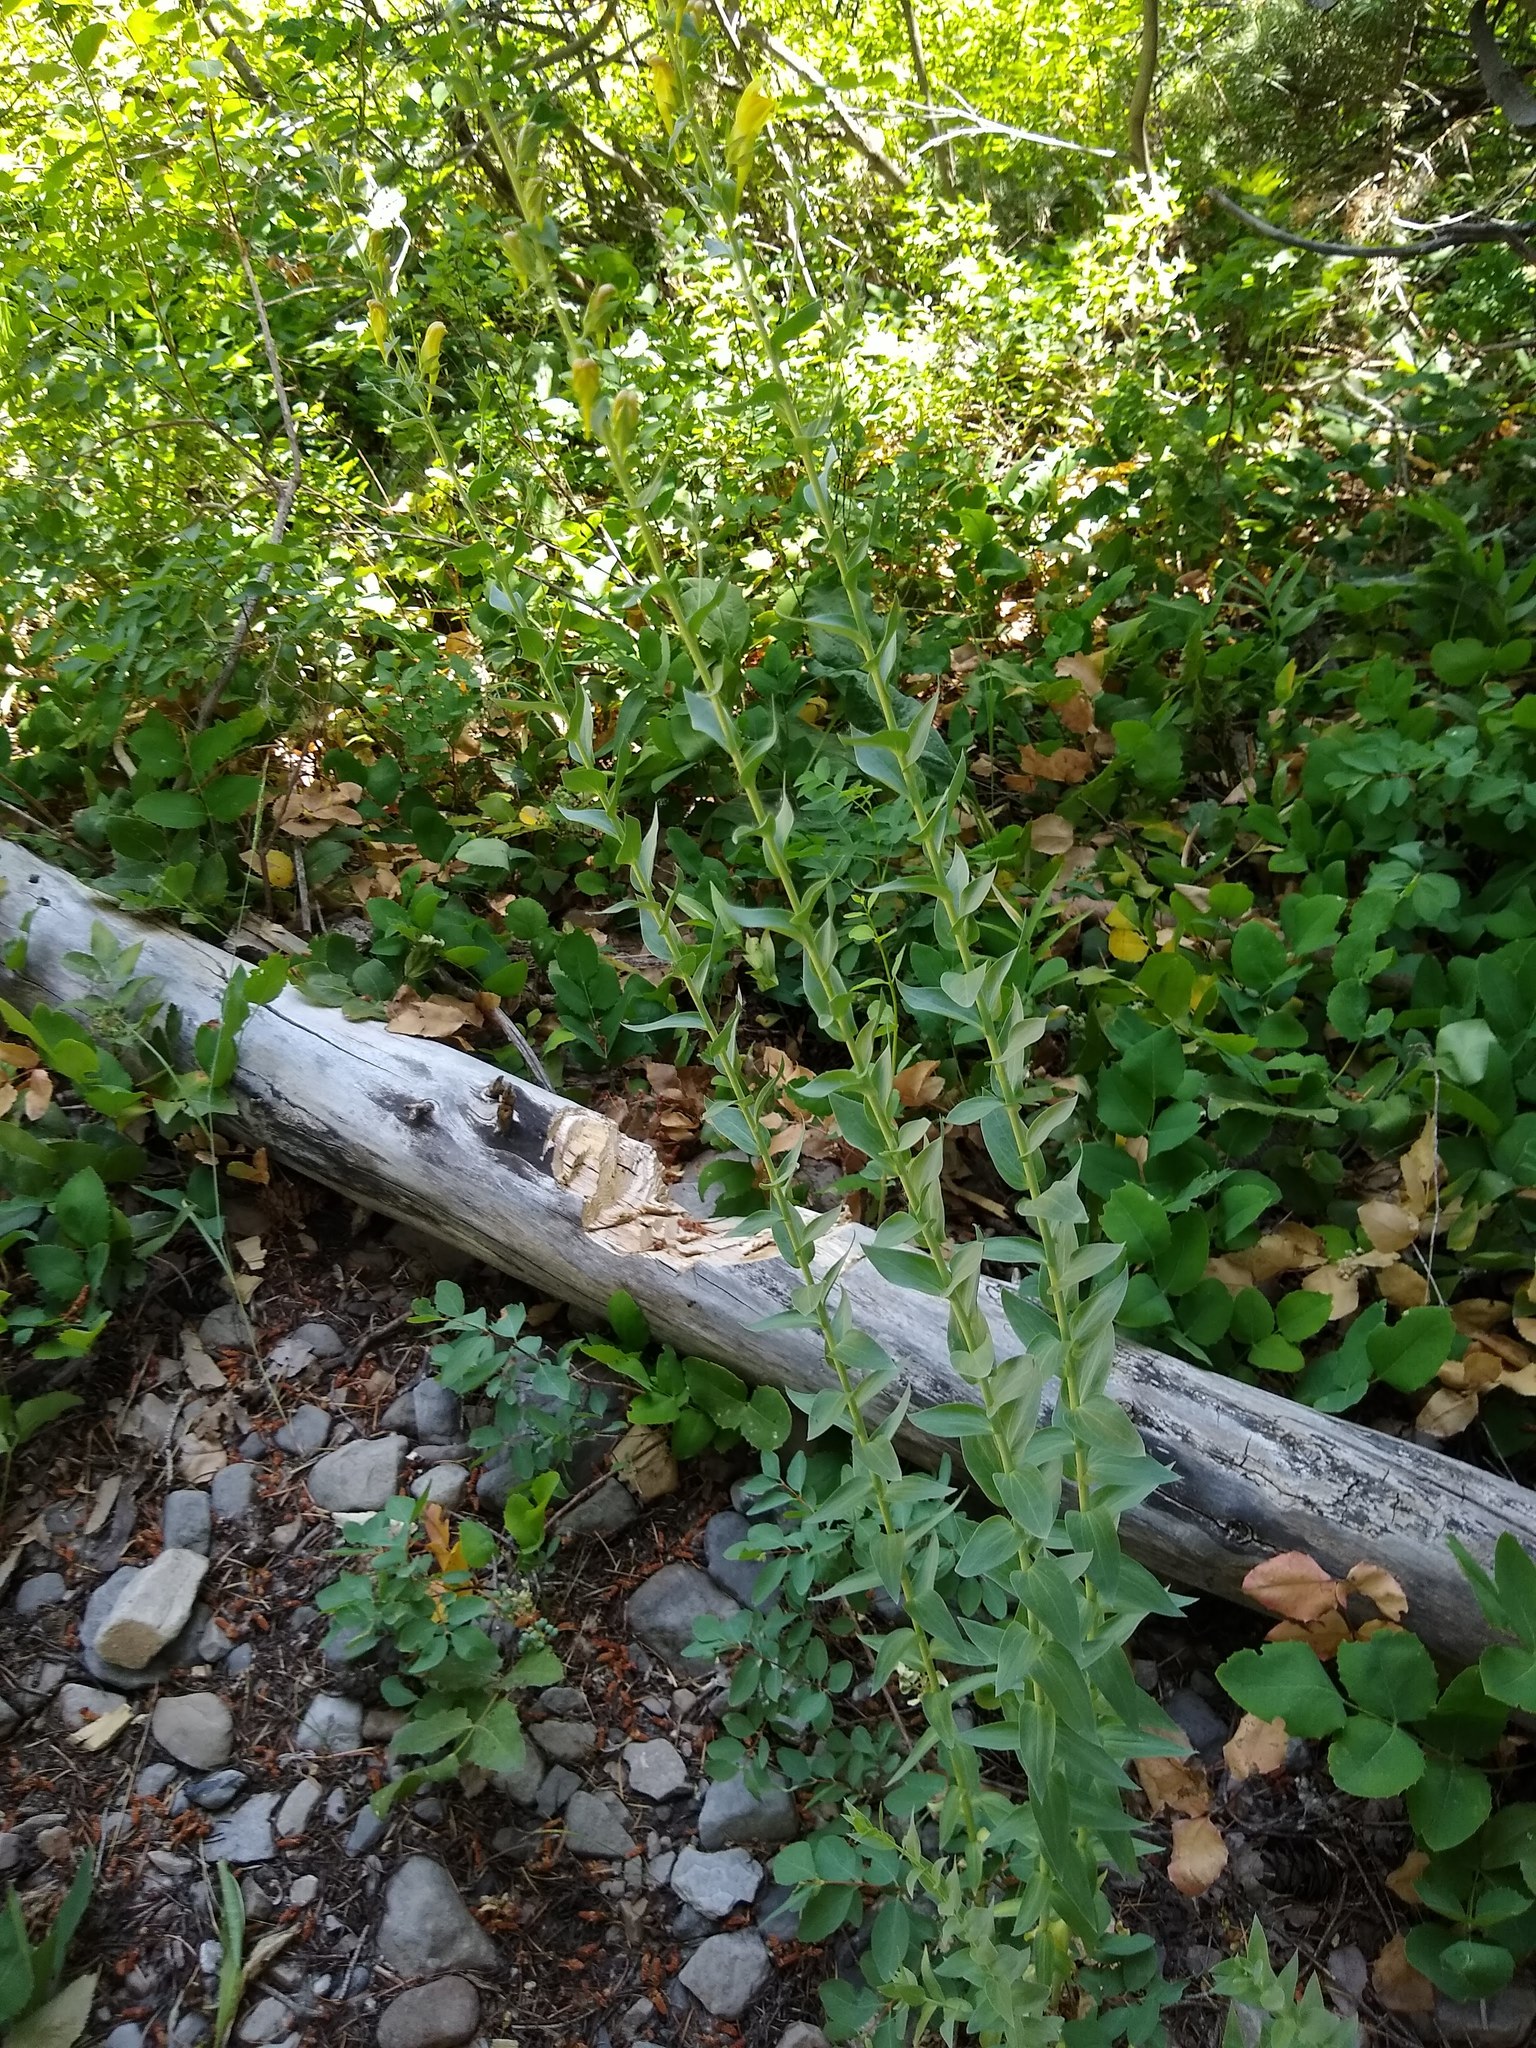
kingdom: Plantae
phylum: Tracheophyta
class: Magnoliopsida
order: Lamiales
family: Plantaginaceae
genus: Linaria
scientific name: Linaria dalmatica
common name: Dalmatian toadflax
